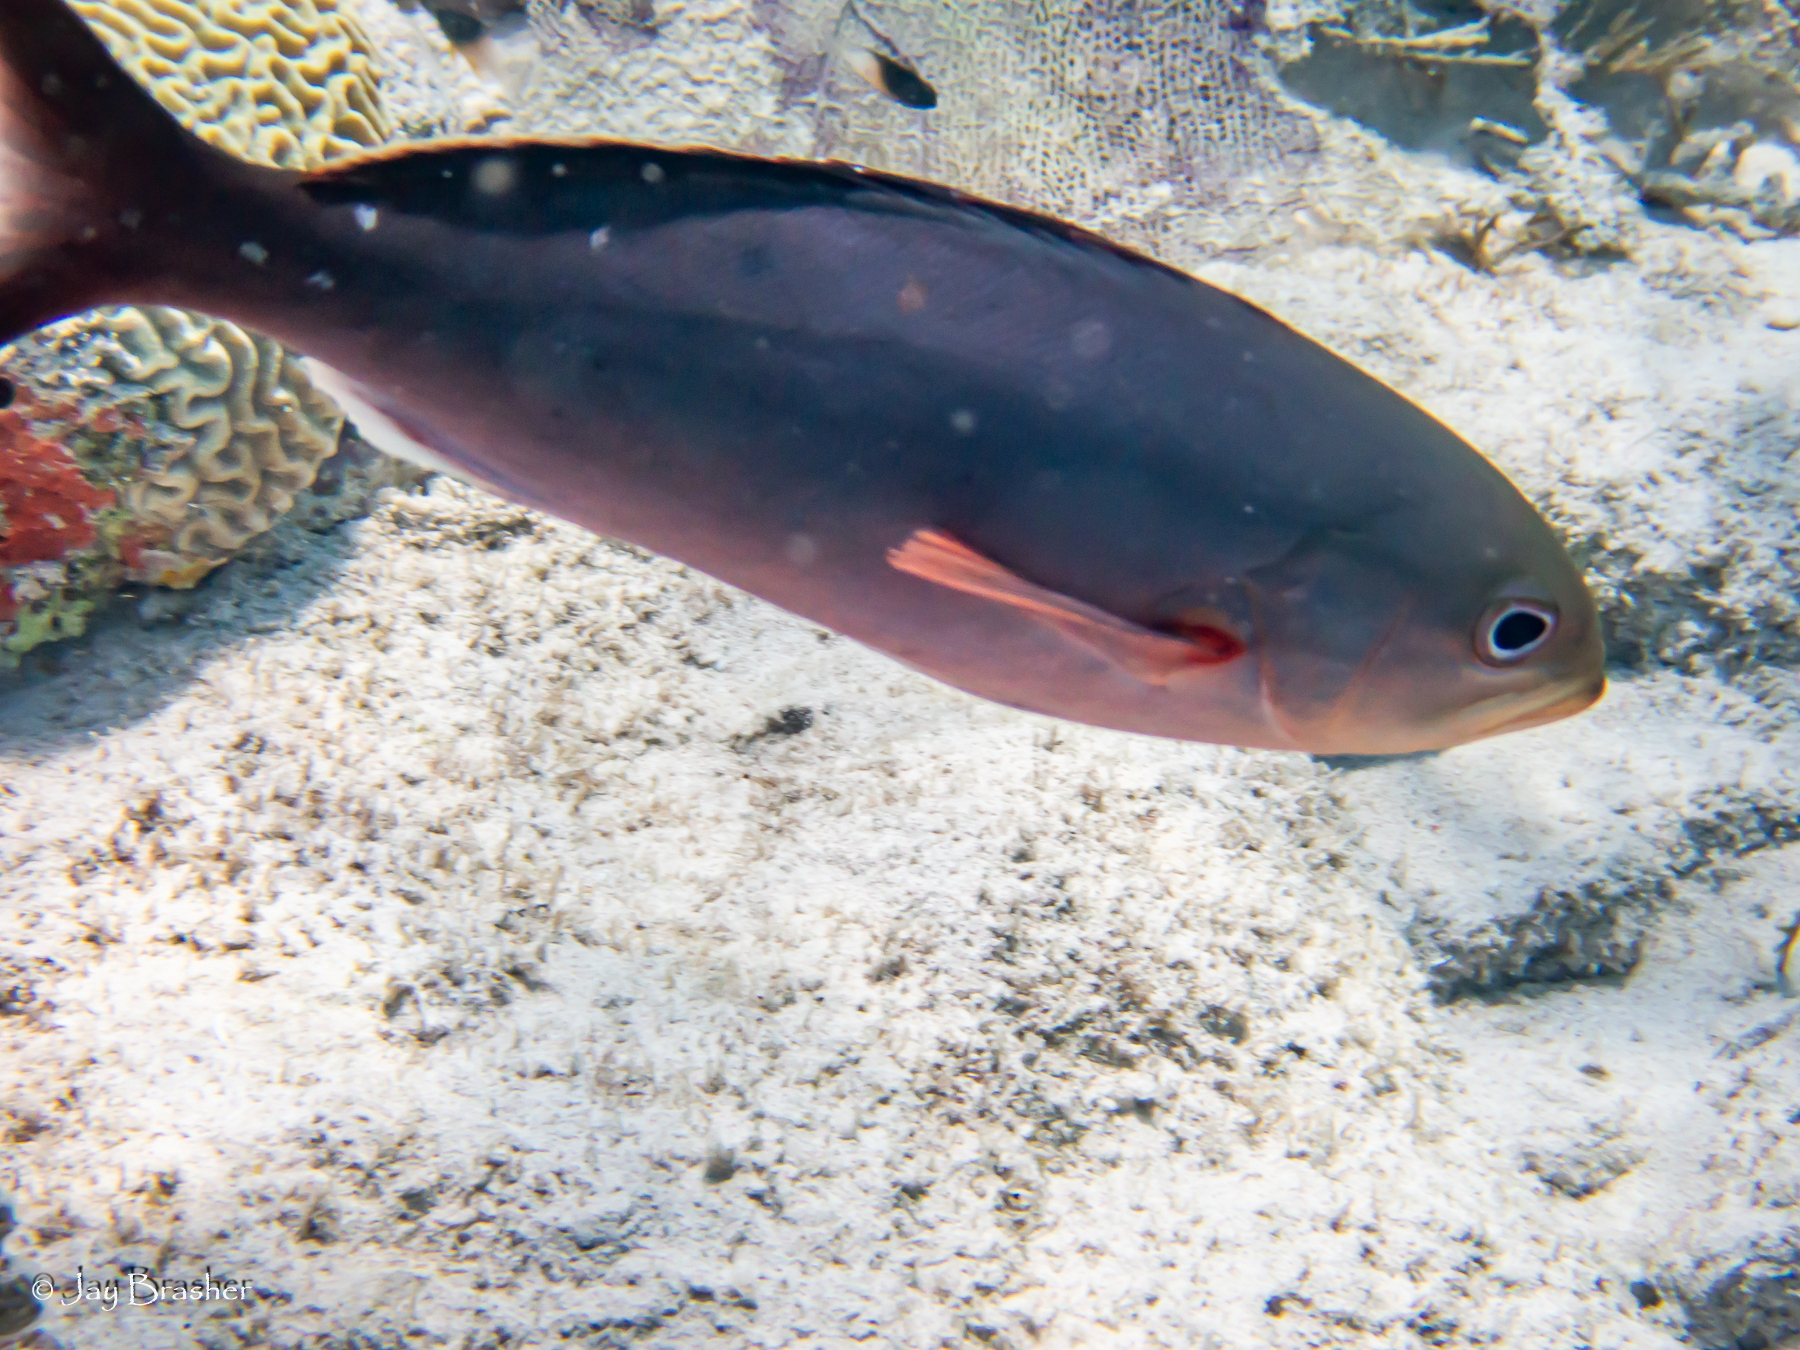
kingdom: Animalia
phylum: Chordata
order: Perciformes
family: Serranidae
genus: Paranthias
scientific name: Paranthias furcifer
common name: Creole-fish
